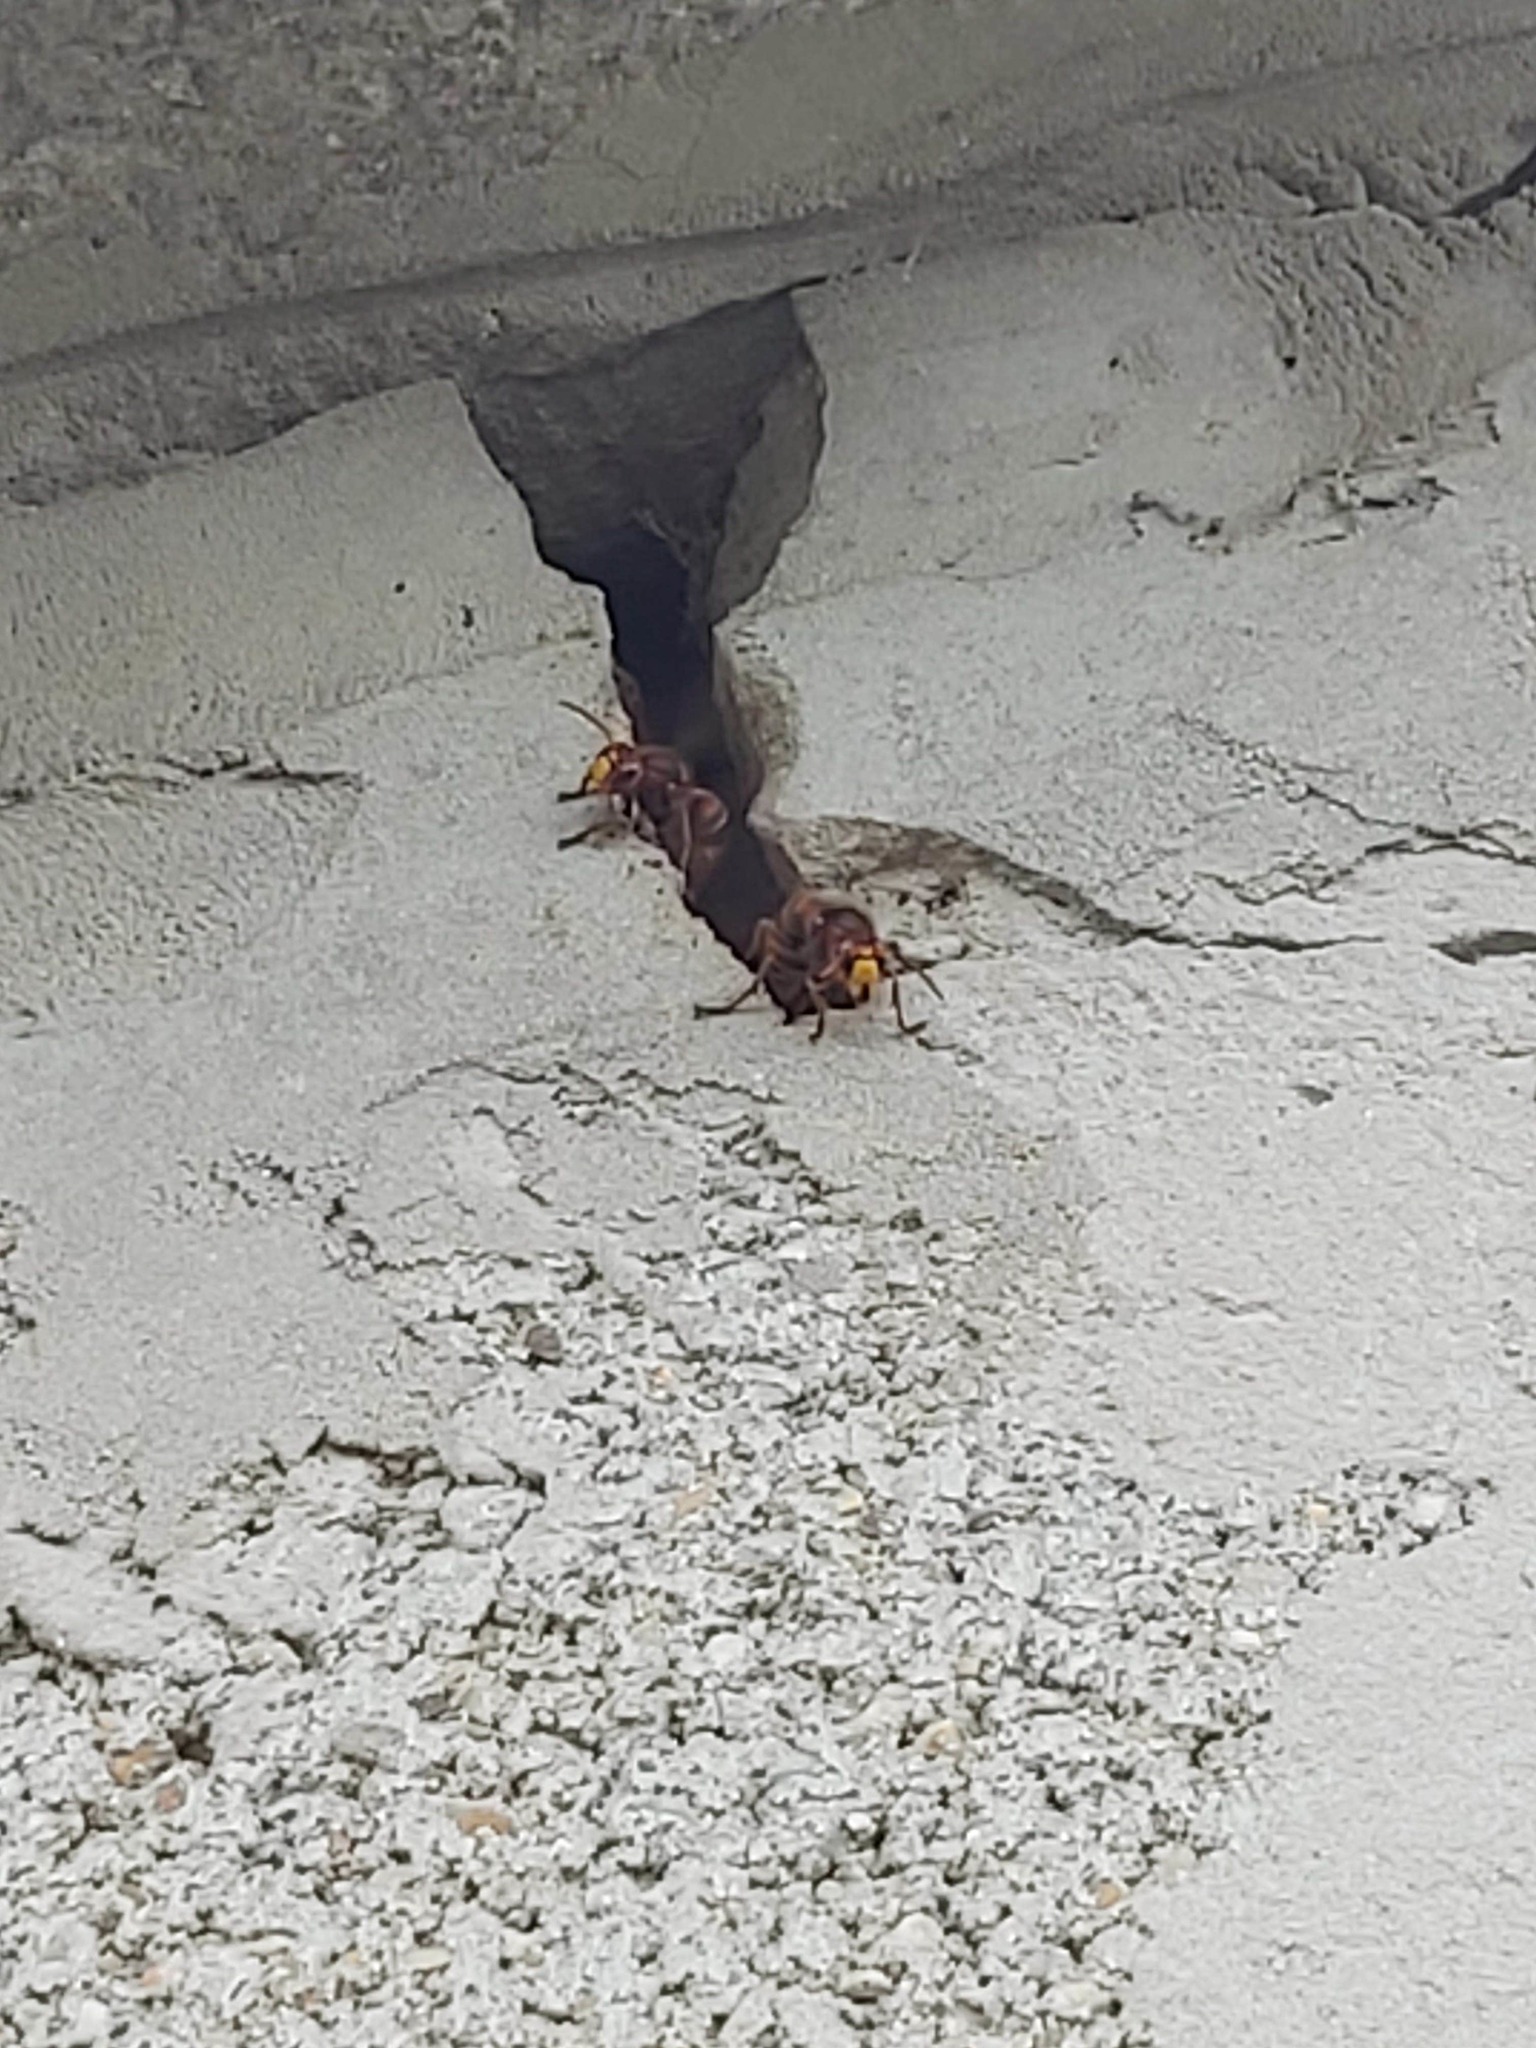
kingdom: Animalia
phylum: Arthropoda
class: Insecta
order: Hymenoptera
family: Vespidae
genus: Vespa
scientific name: Vespa crabro
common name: Hornet
